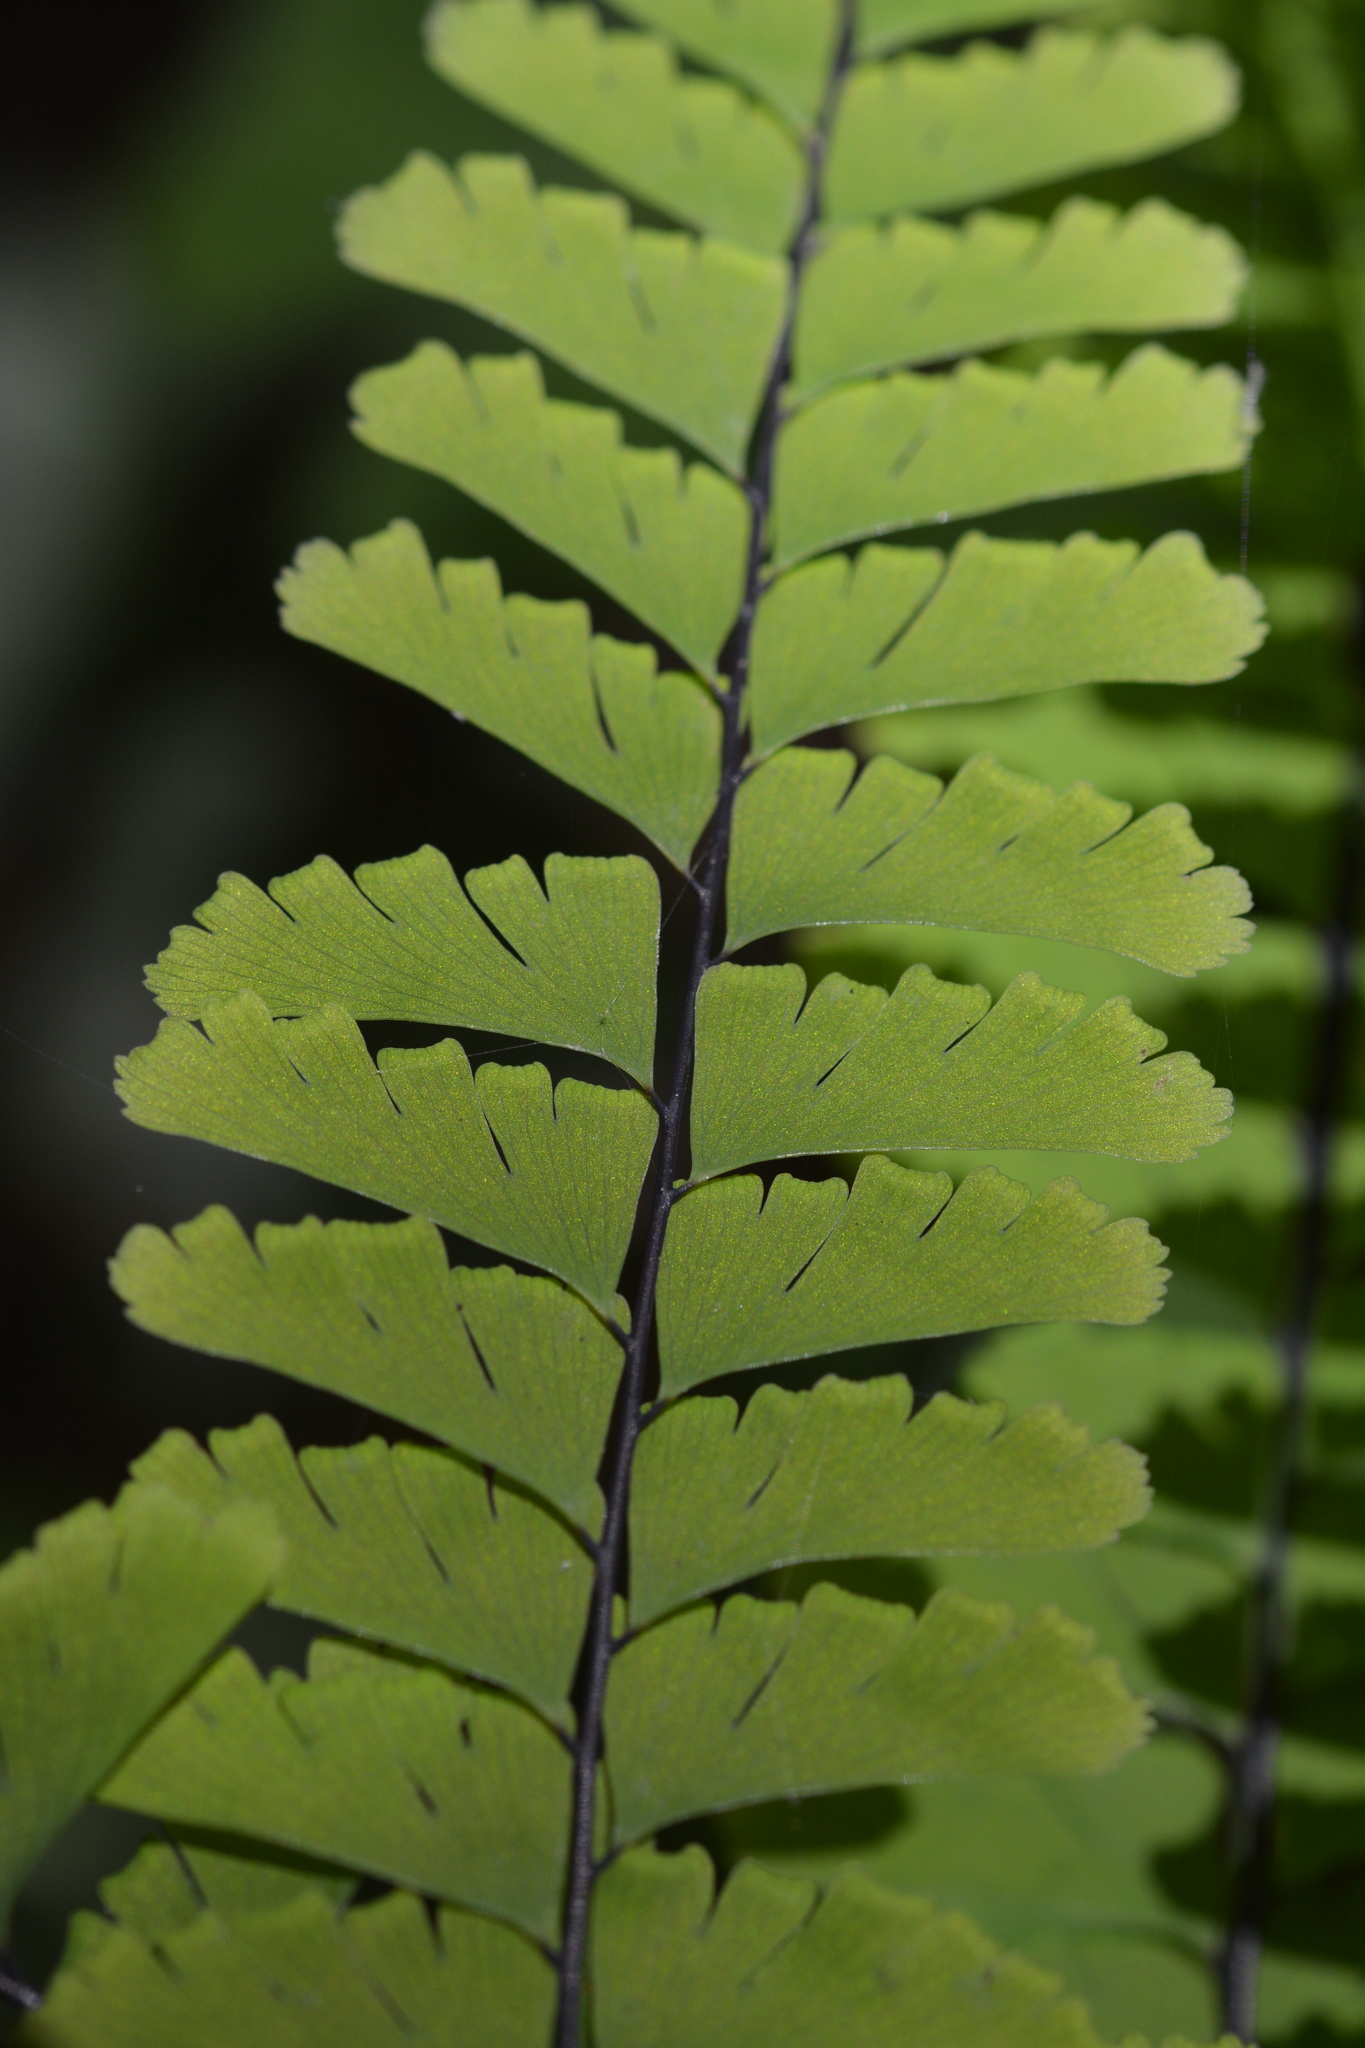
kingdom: Plantae
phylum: Tracheophyta
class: Polypodiopsida
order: Polypodiales
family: Pteridaceae
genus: Adiantum
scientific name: Adiantum aleuticum
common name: Aleutian maidenhair fern
